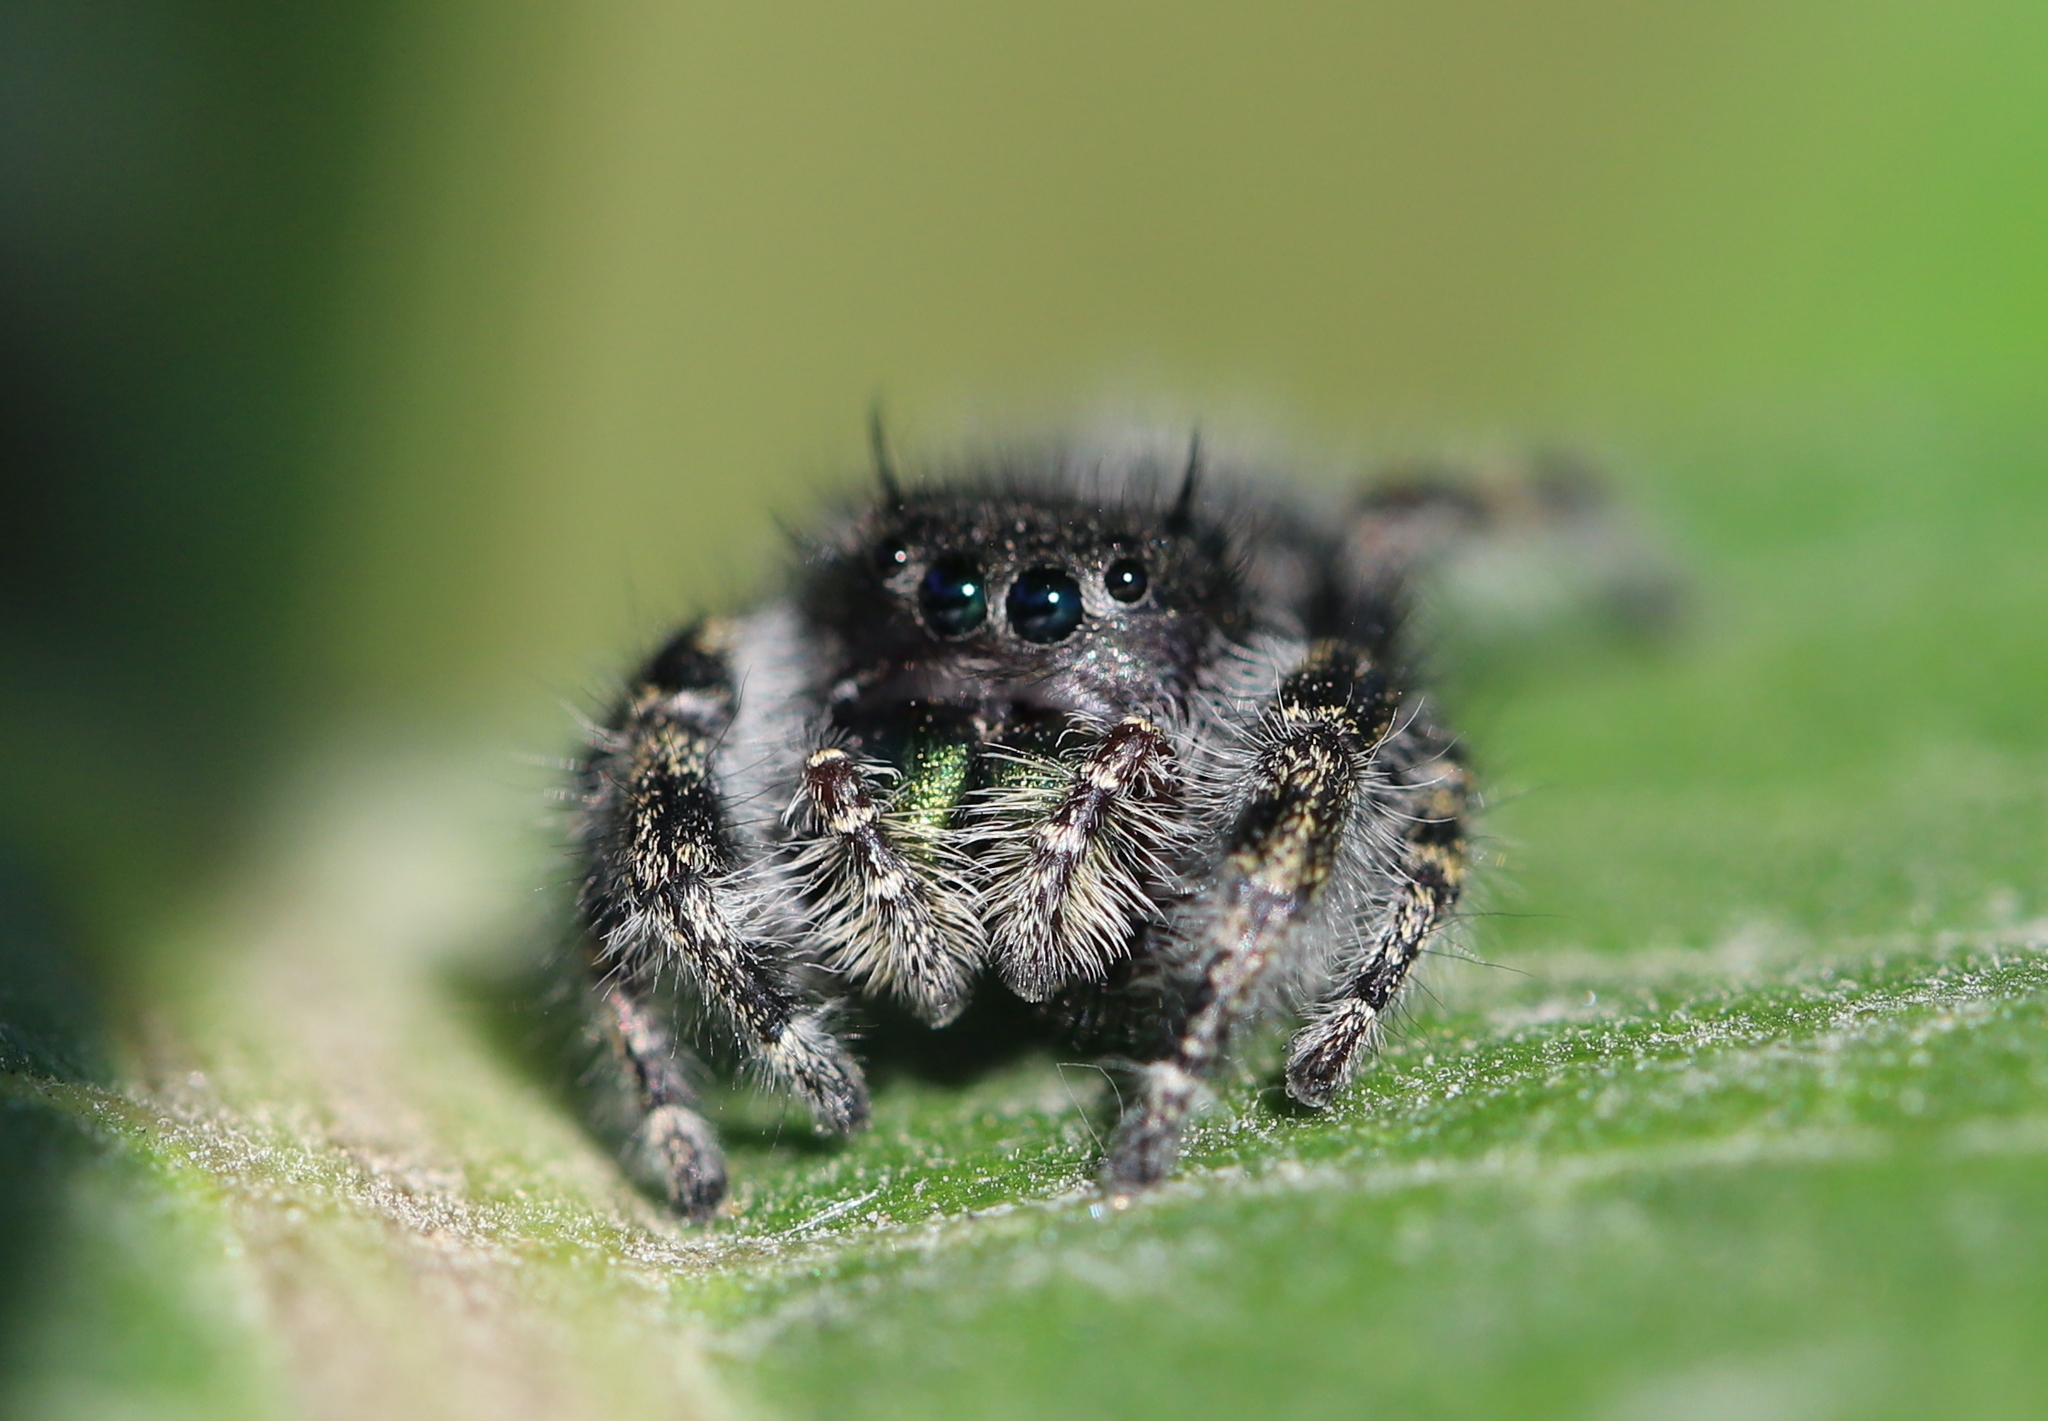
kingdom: Animalia
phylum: Arthropoda
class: Arachnida
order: Araneae
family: Salticidae
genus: Phidippus
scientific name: Phidippus audax
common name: Bold jumper
